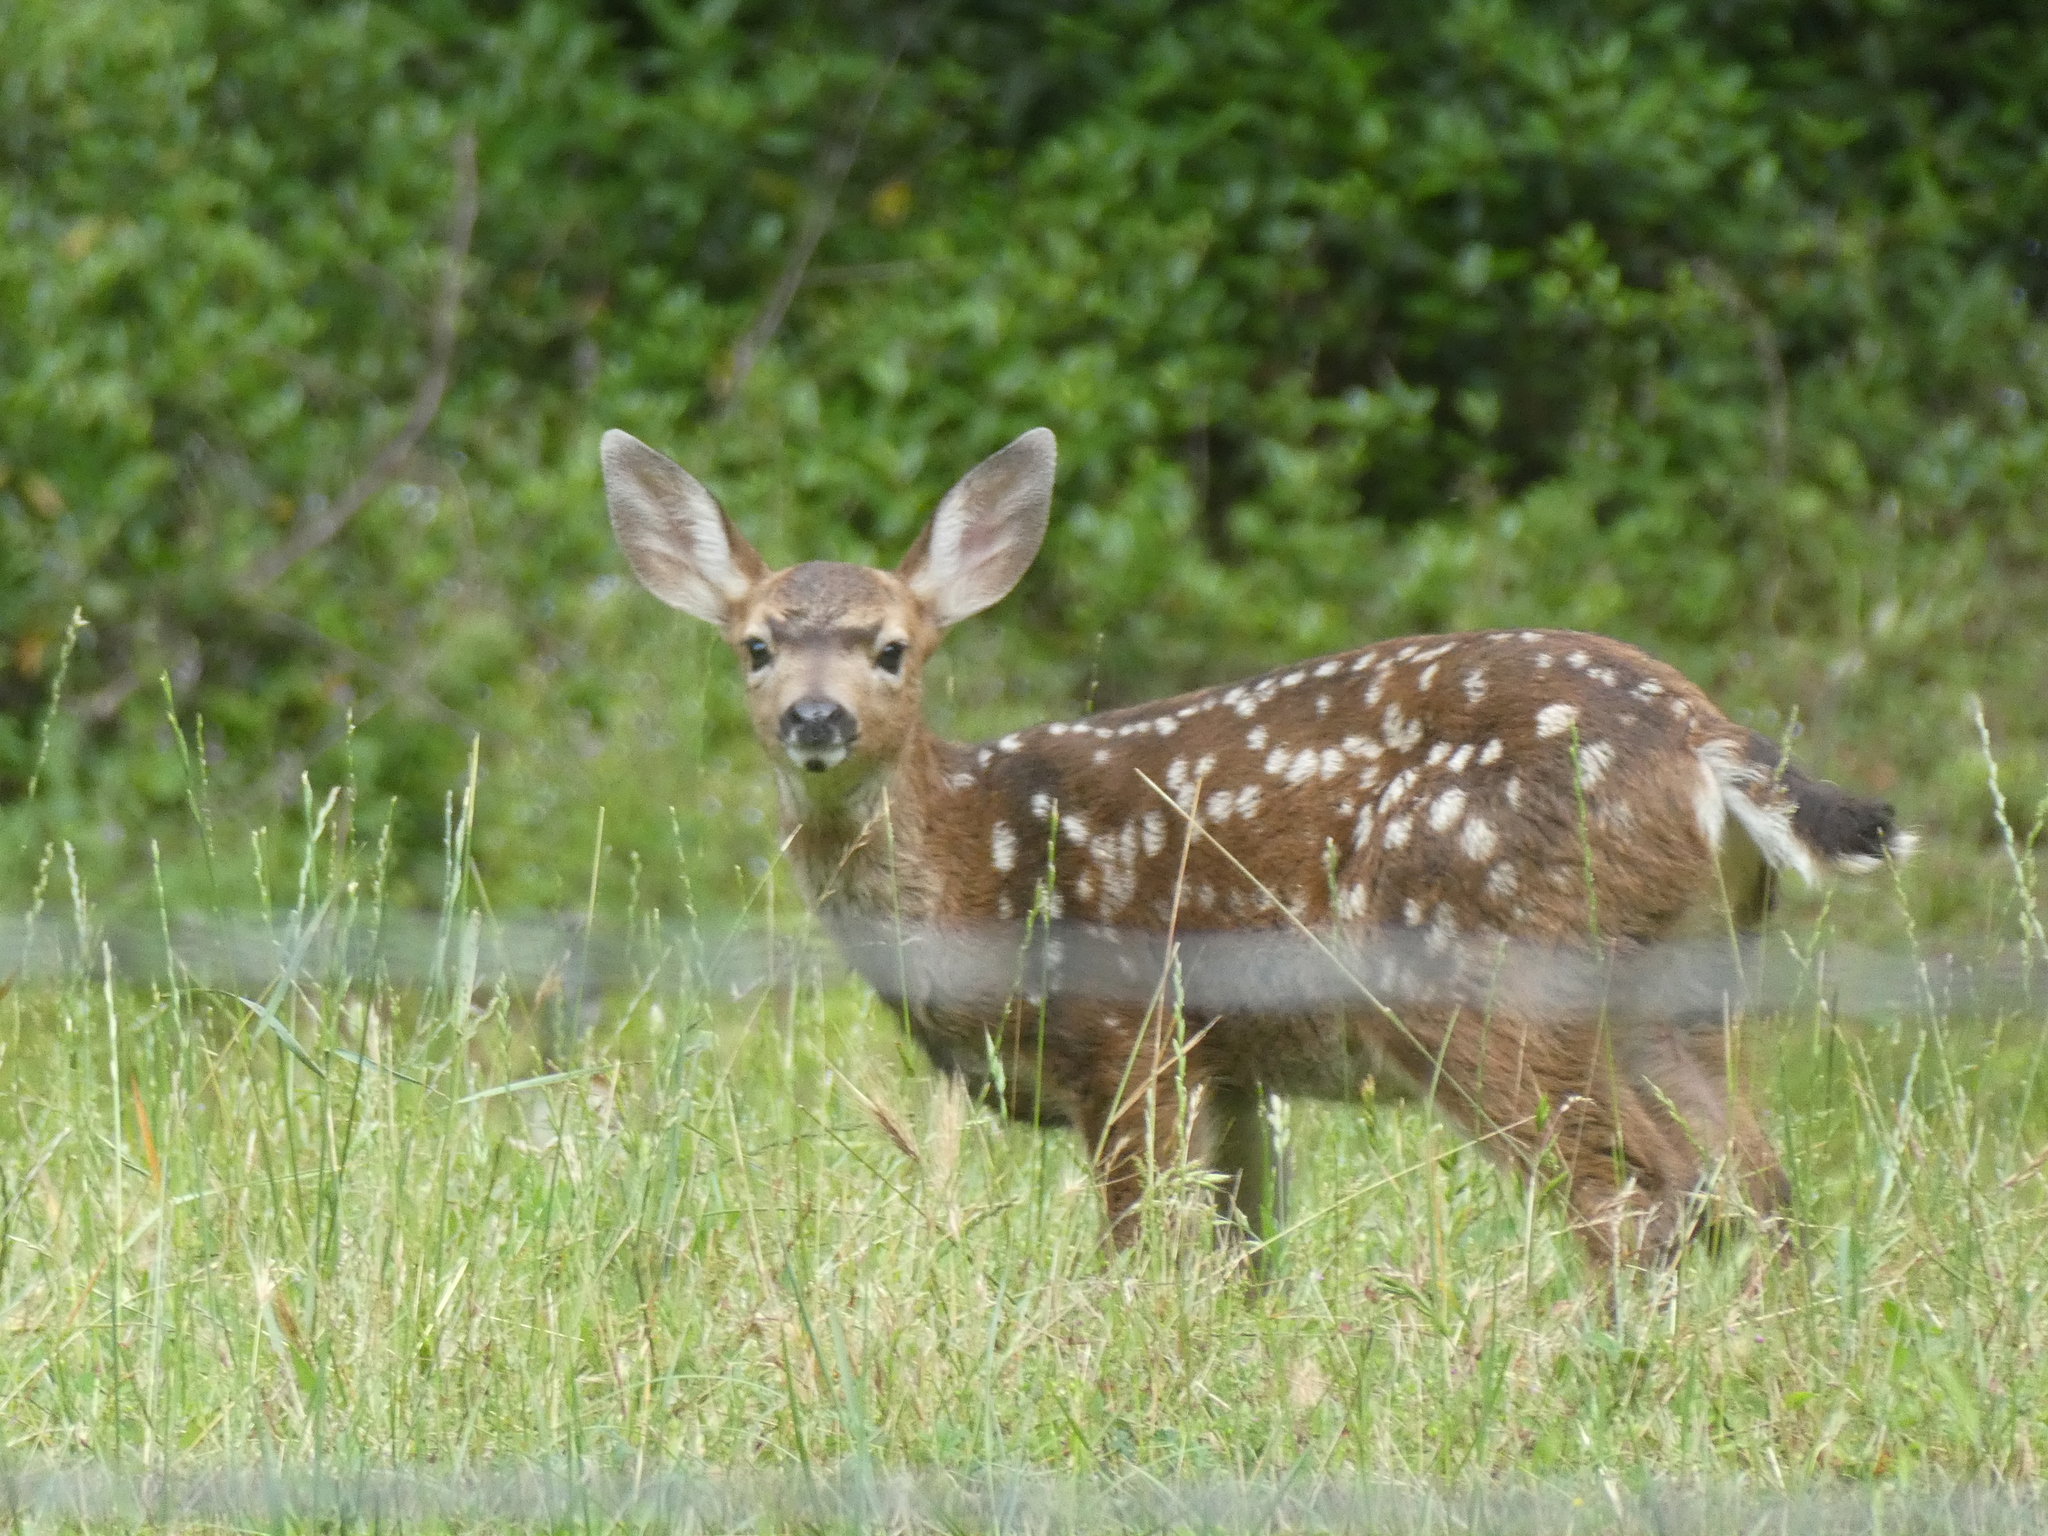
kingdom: Animalia
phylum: Chordata
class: Mammalia
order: Artiodactyla
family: Cervidae
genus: Odocoileus
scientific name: Odocoileus hemionus
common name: Mule deer
